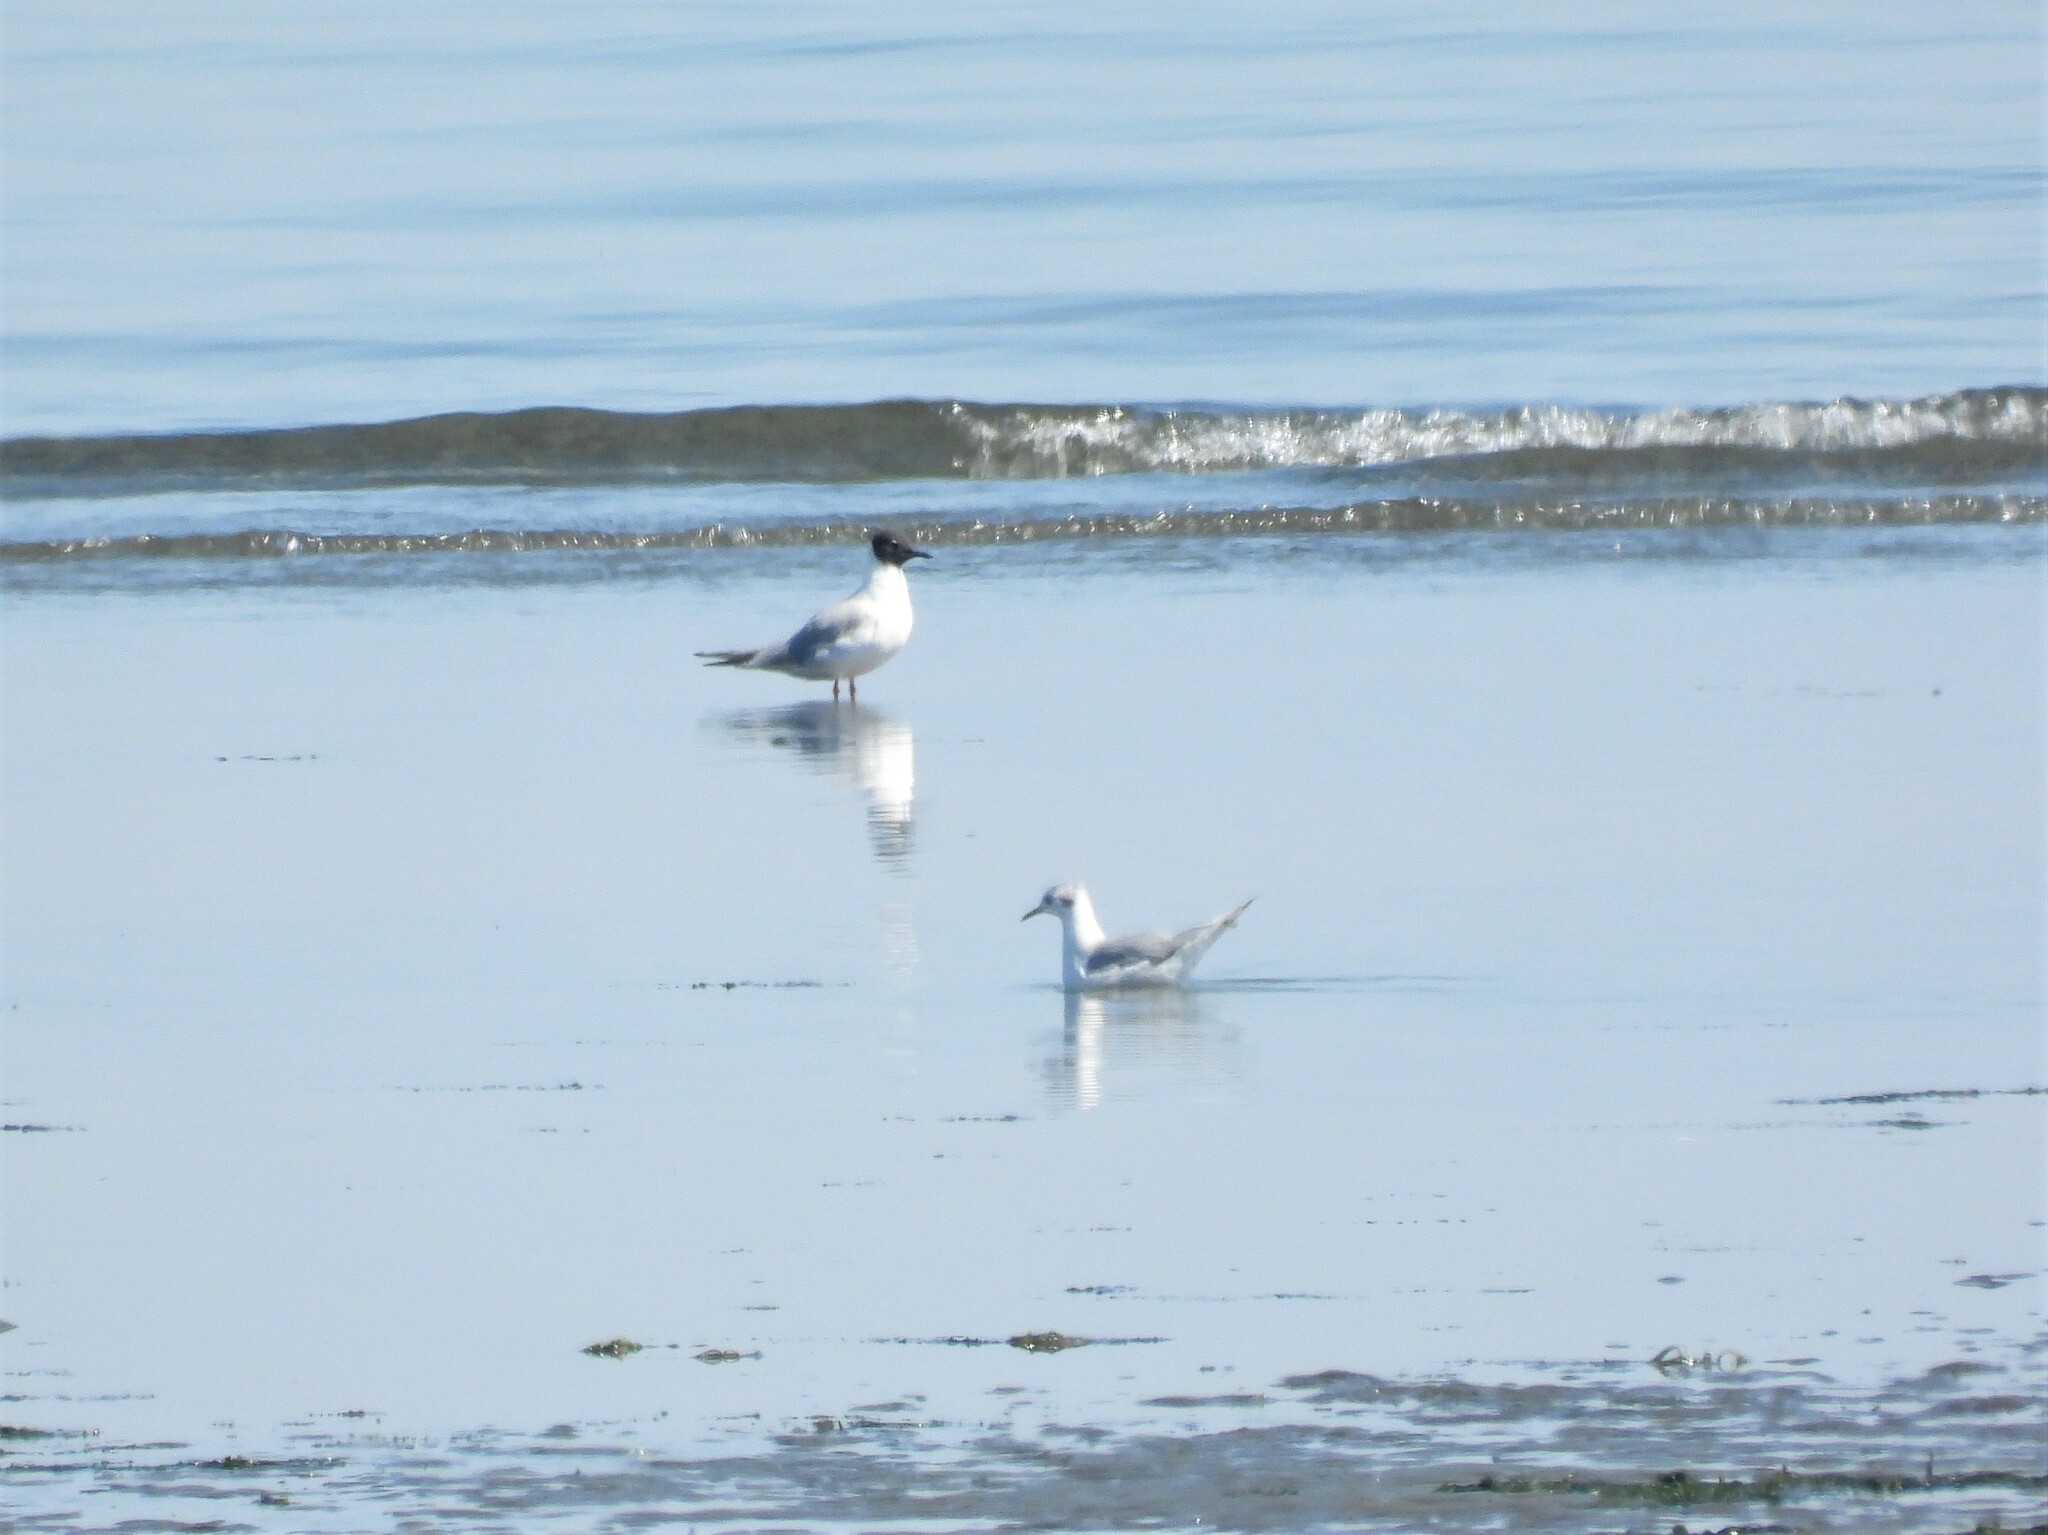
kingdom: Animalia
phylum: Chordata
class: Aves
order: Charadriiformes
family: Laridae
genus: Chroicocephalus
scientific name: Chroicocephalus philadelphia
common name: Bonaparte's gull
